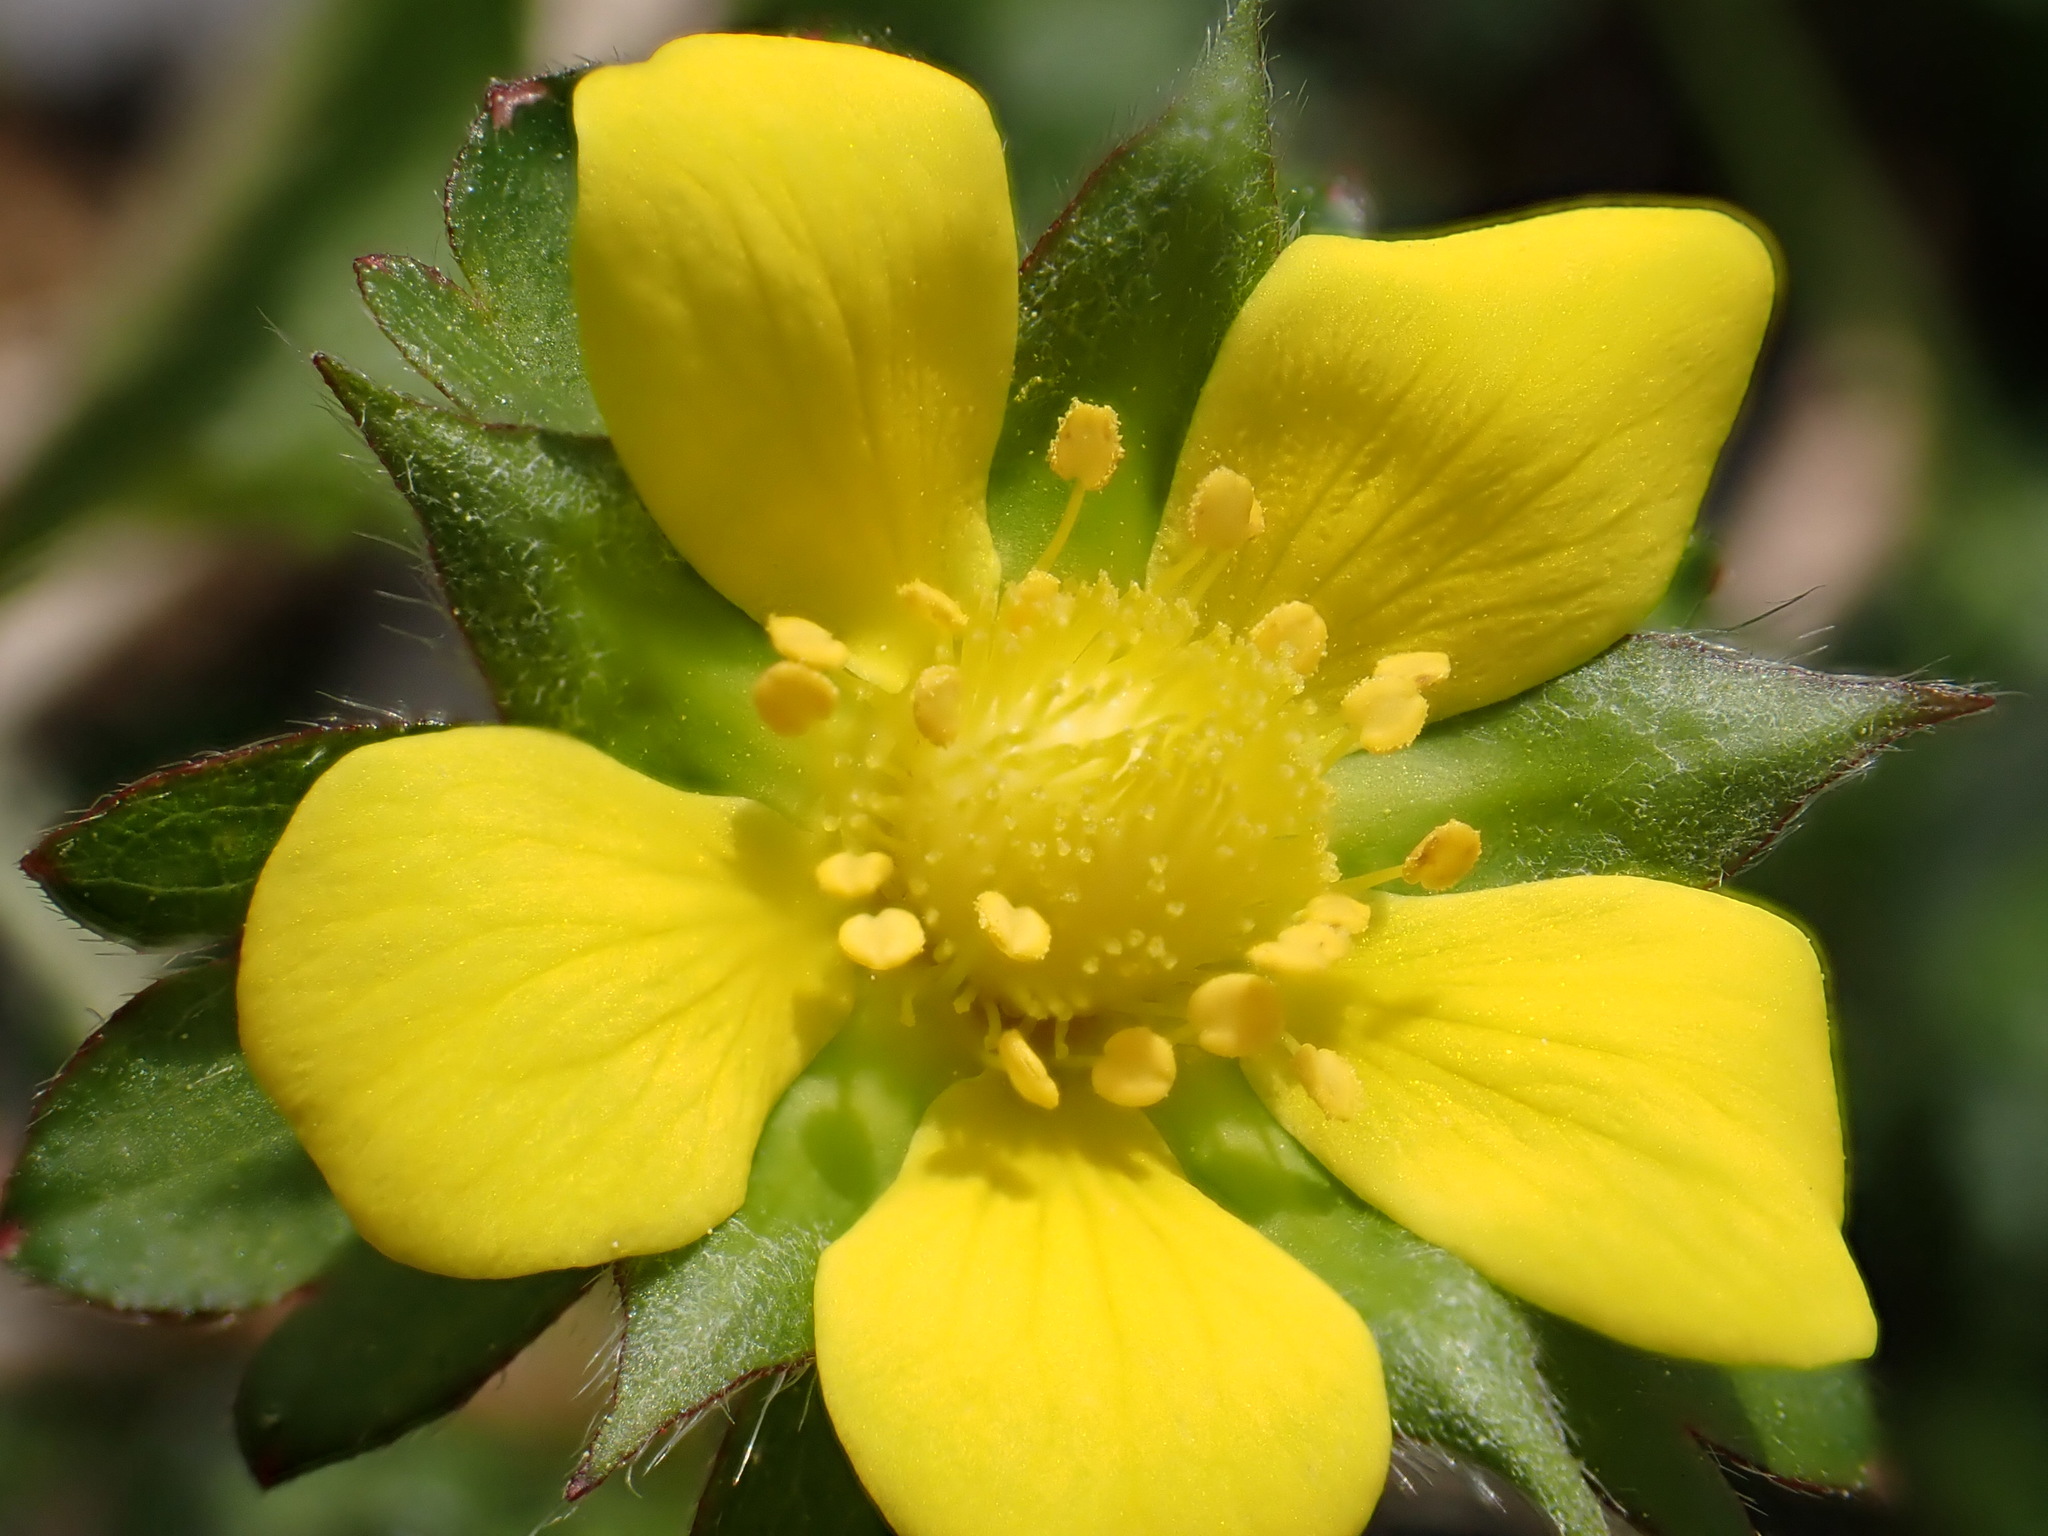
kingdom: Plantae
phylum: Tracheophyta
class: Magnoliopsida
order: Rosales
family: Rosaceae
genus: Potentilla
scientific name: Potentilla indica
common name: Yellow-flowered strawberry
